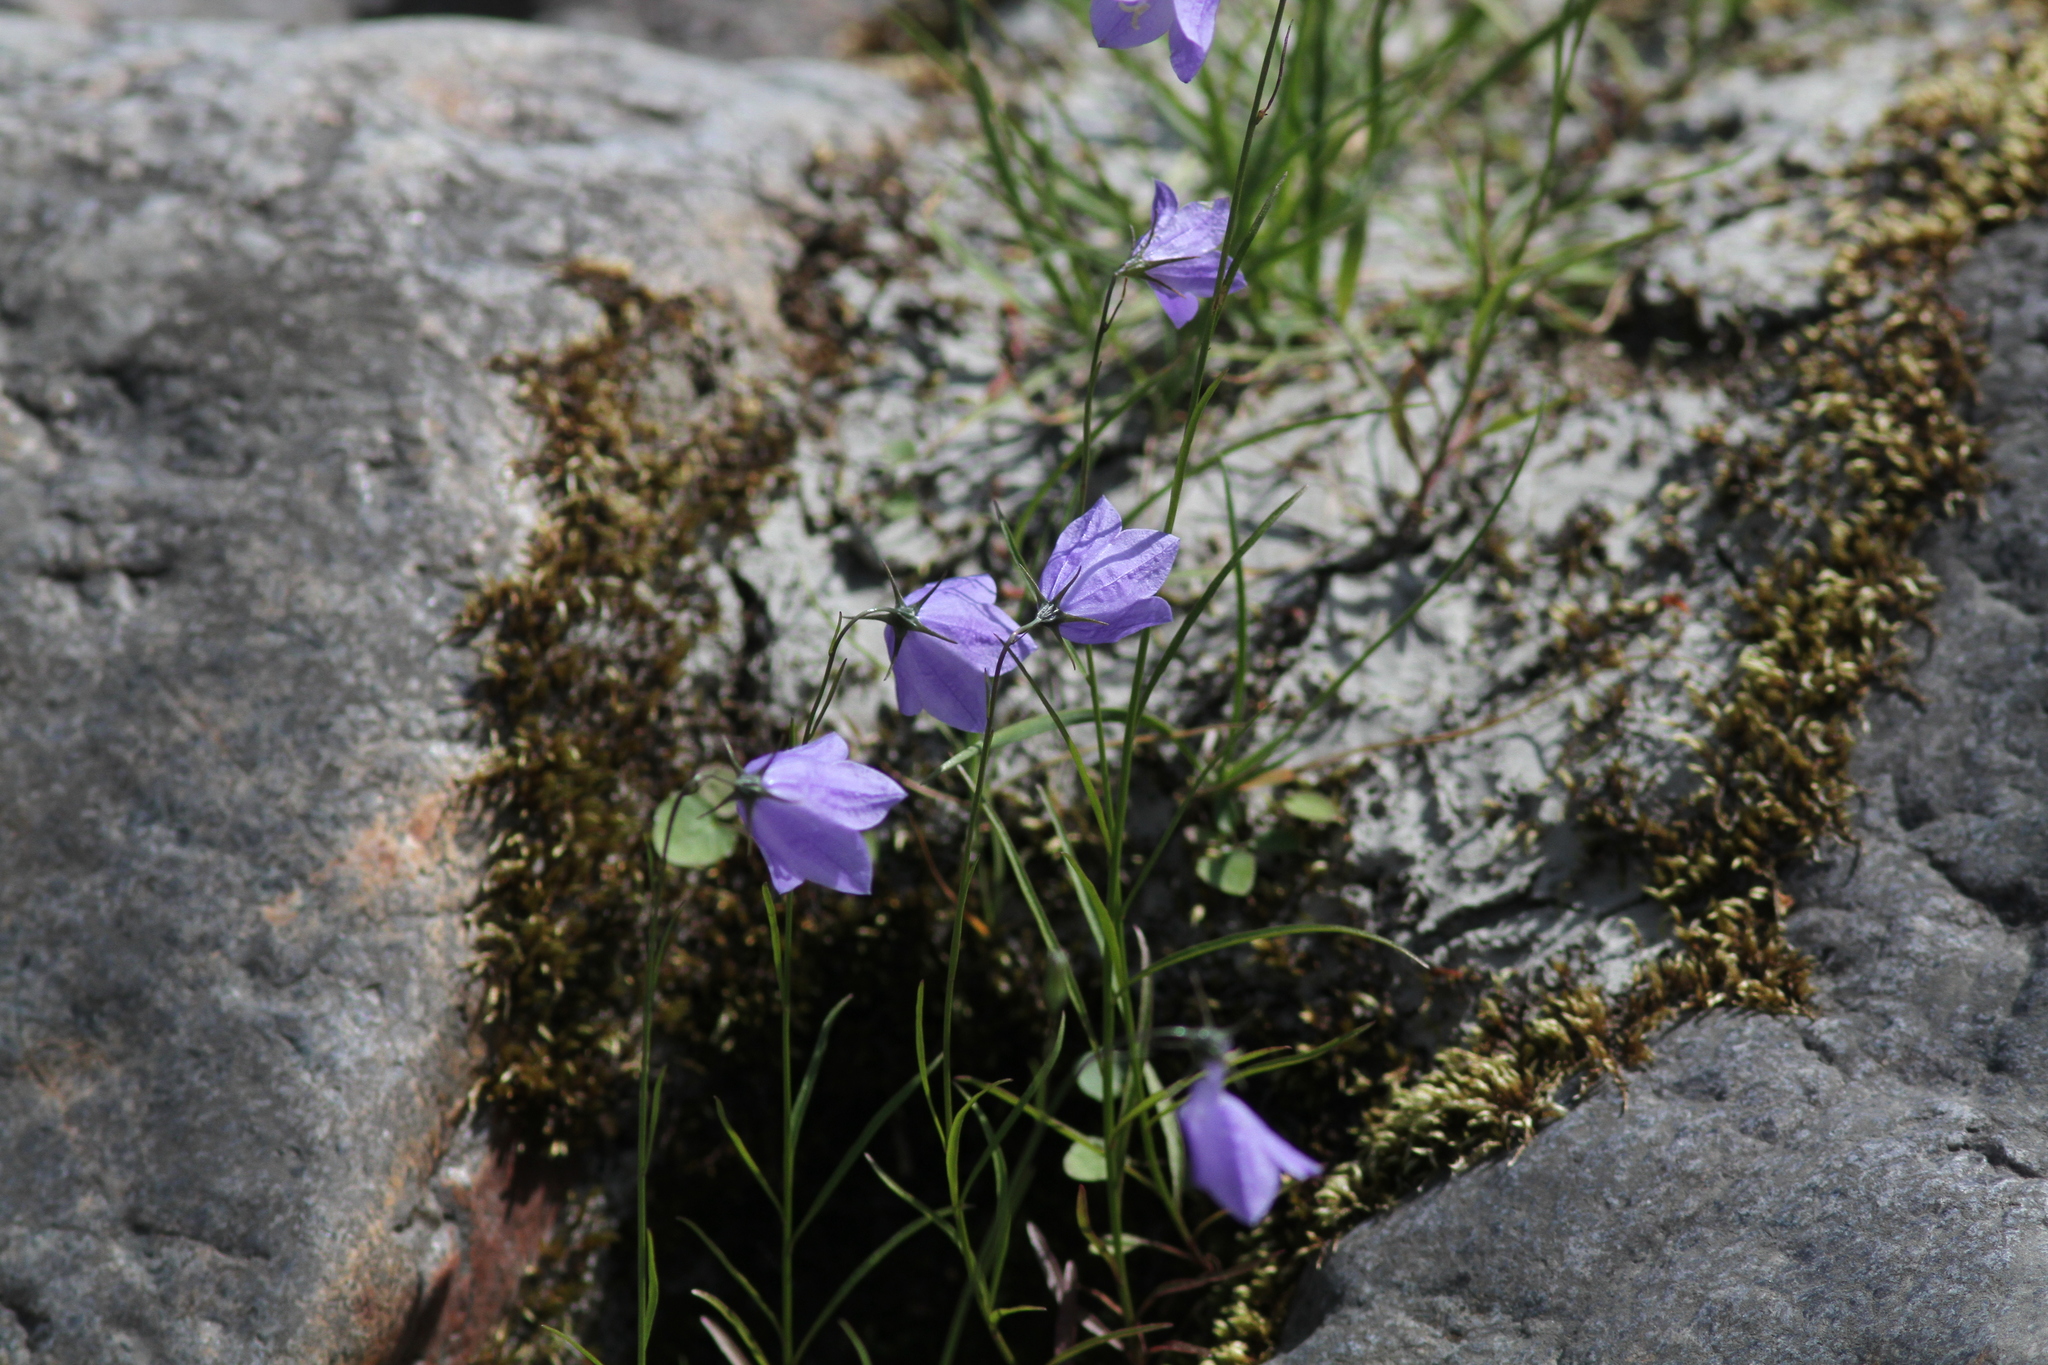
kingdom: Plantae
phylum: Tracheophyta
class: Magnoliopsida
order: Asterales
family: Campanulaceae
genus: Campanula
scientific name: Campanula giesekiana
